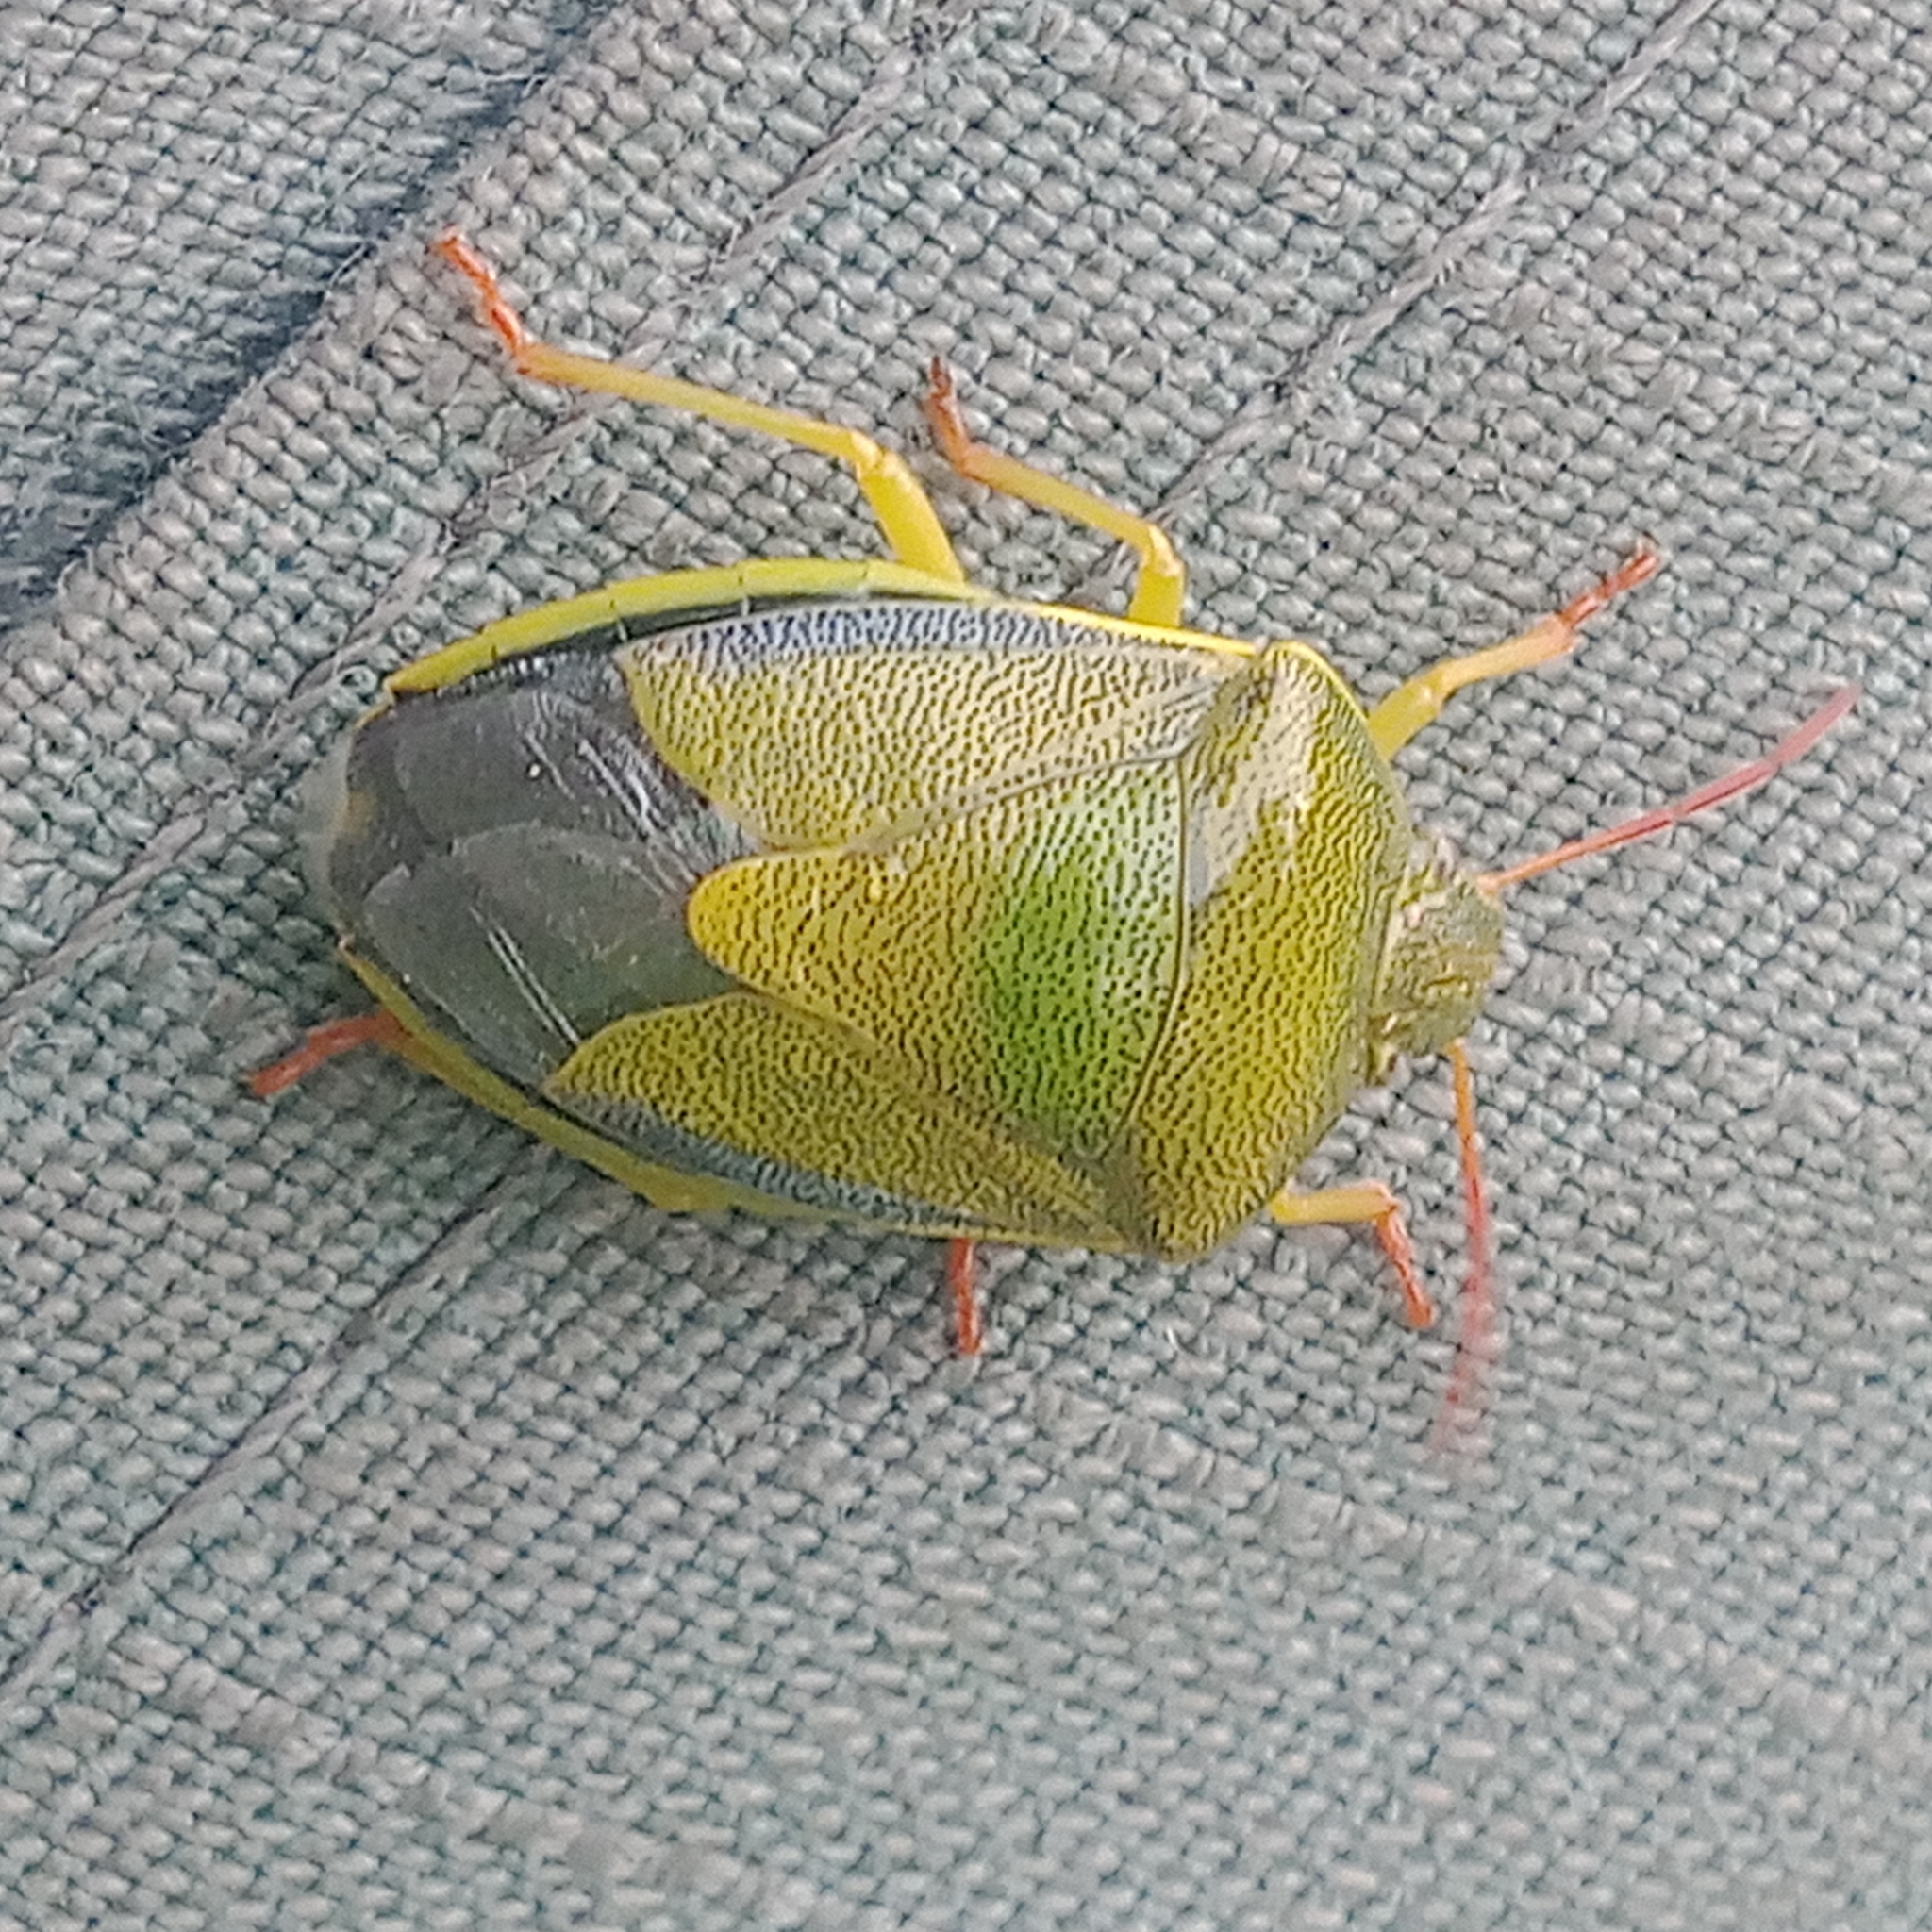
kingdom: Animalia
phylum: Arthropoda
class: Insecta
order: Hemiptera
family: Pentatomidae
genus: Piezodorus
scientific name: Piezodorus lituratus
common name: Stink bug
